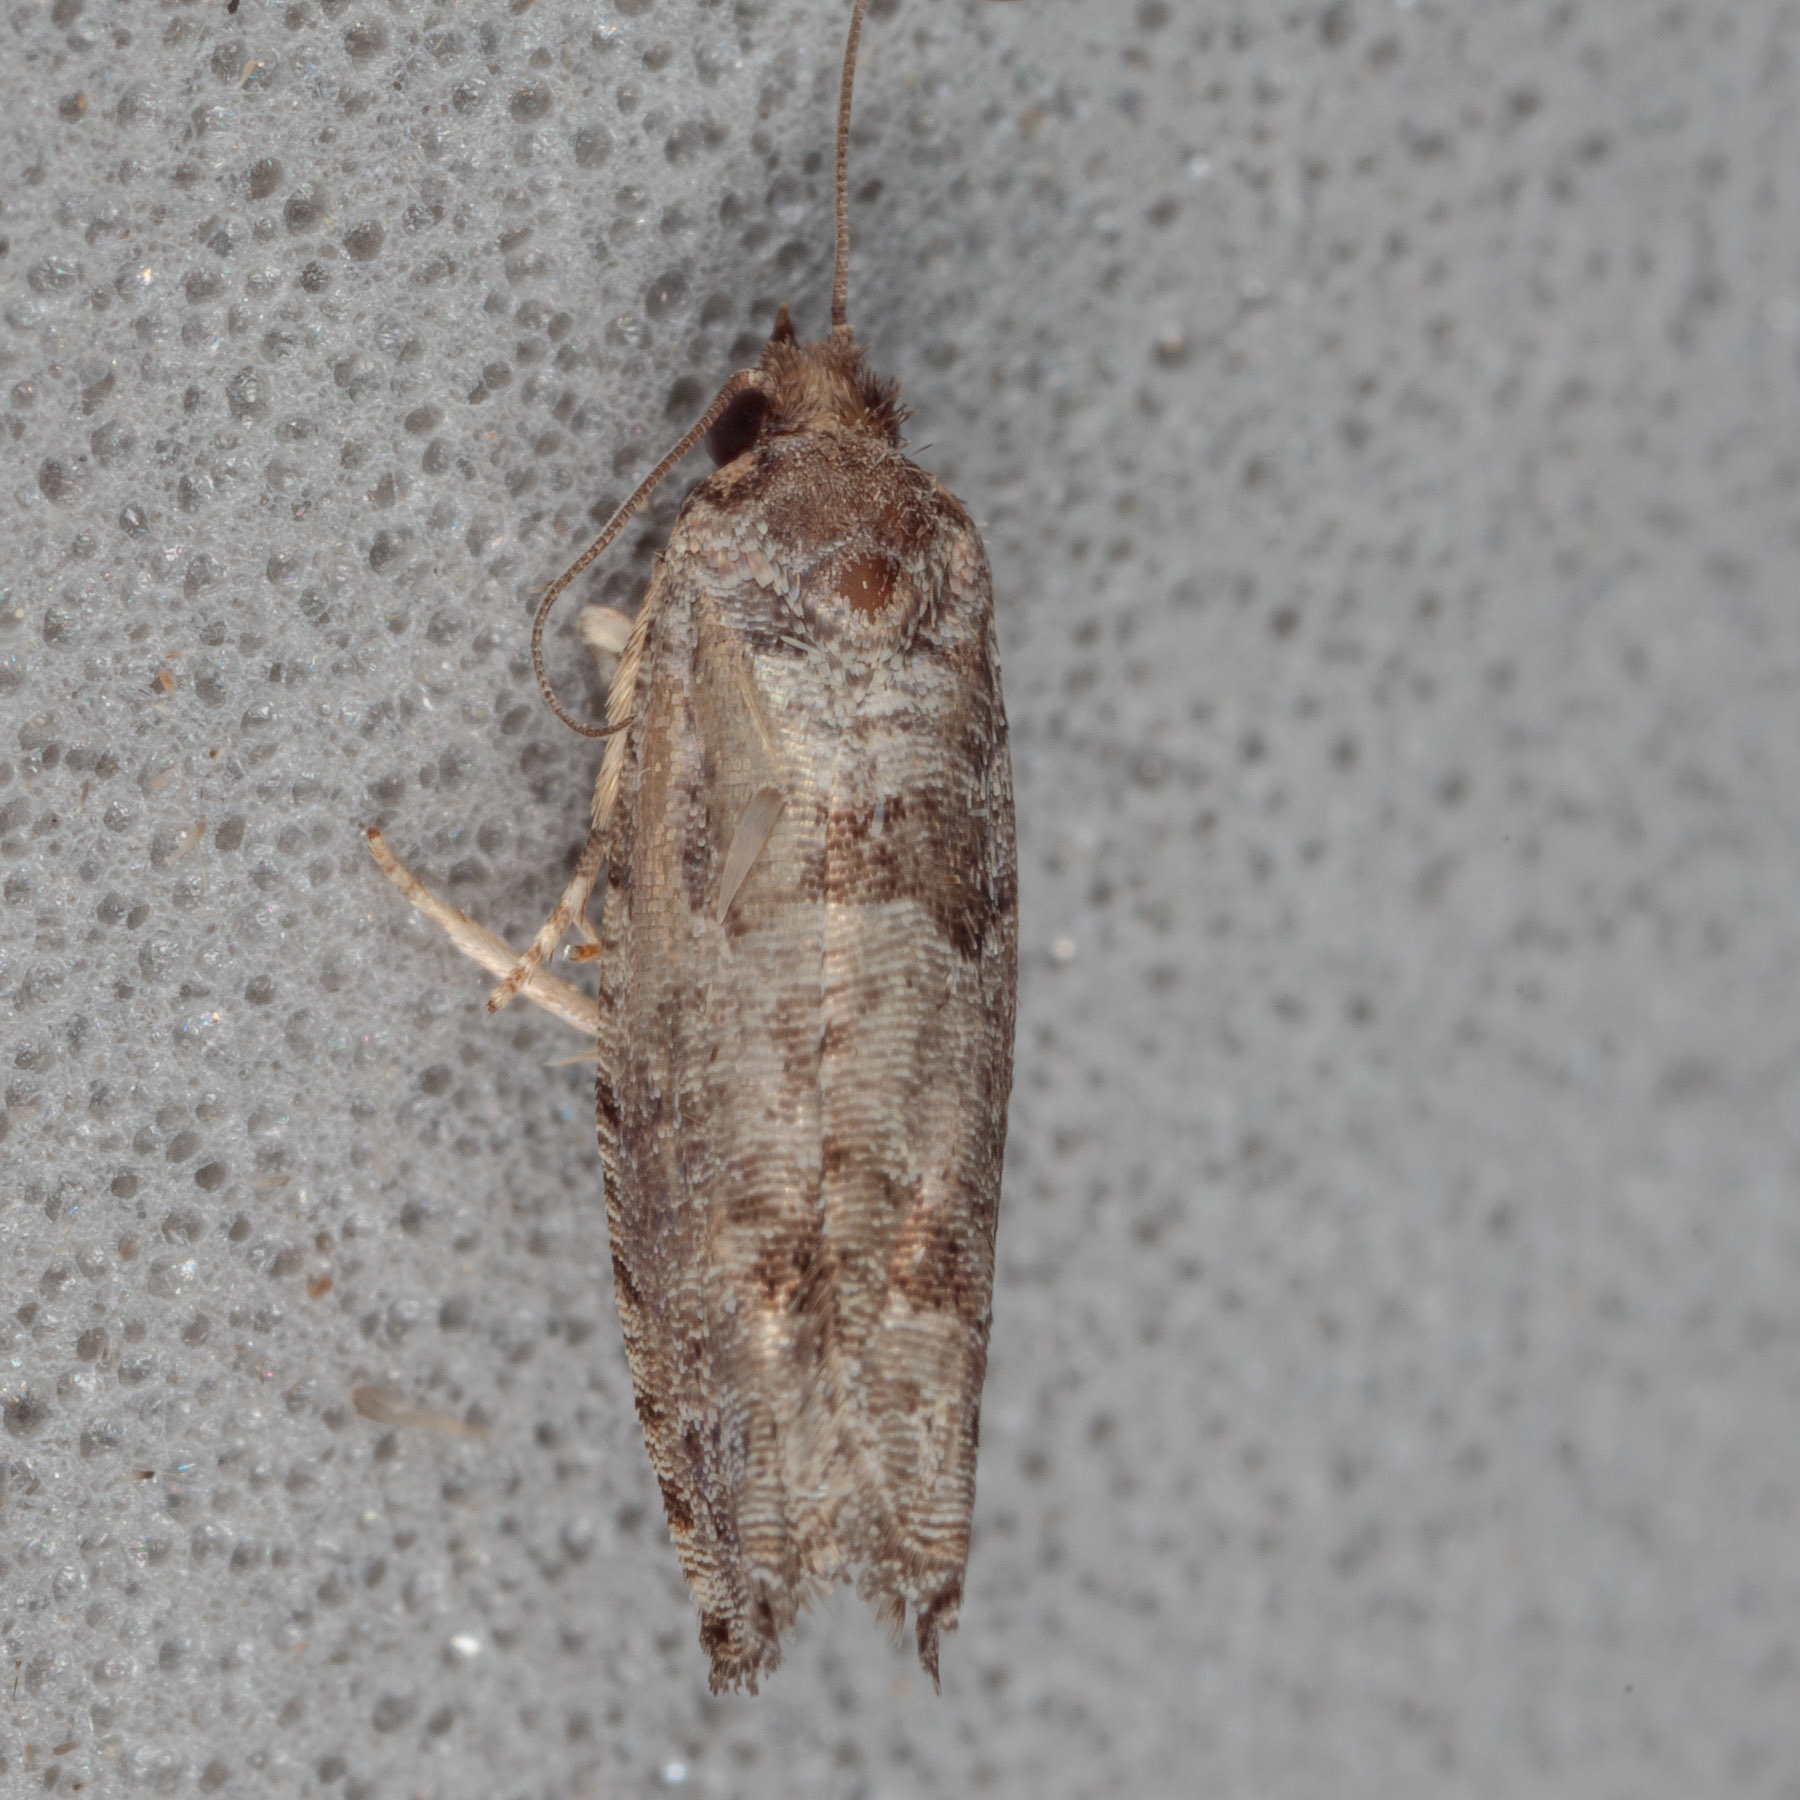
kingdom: Animalia
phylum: Arthropoda
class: Insecta
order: Lepidoptera
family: Tortricidae
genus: Pseudexentera
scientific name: Pseudexentera knudsoni
